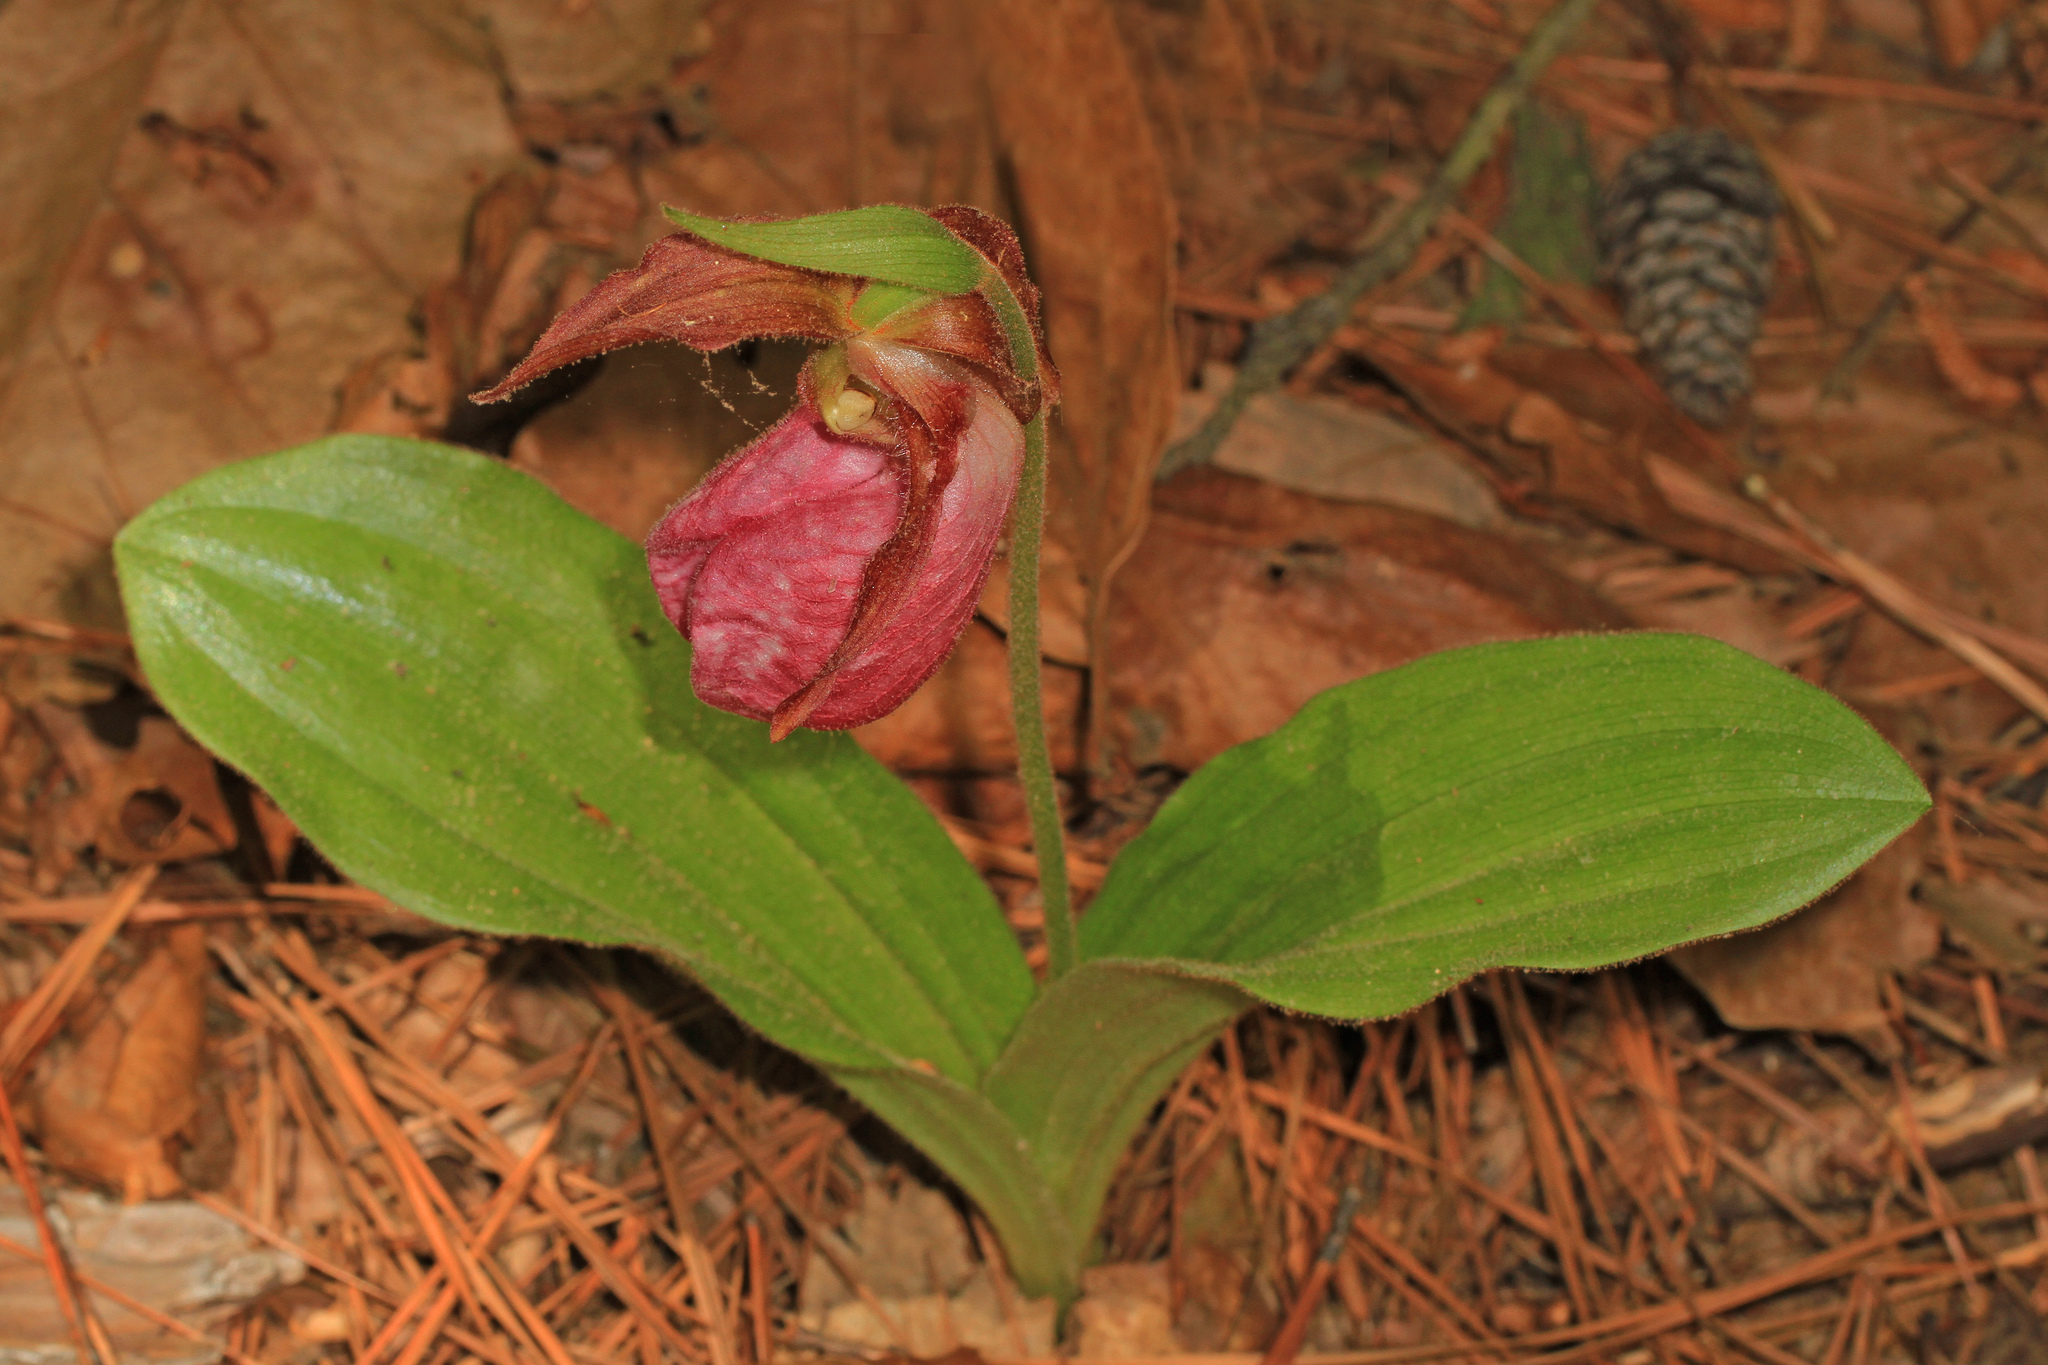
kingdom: Plantae
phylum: Tracheophyta
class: Liliopsida
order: Asparagales
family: Orchidaceae
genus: Cypripedium
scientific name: Cypripedium acaule
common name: Pink lady's-slipper
